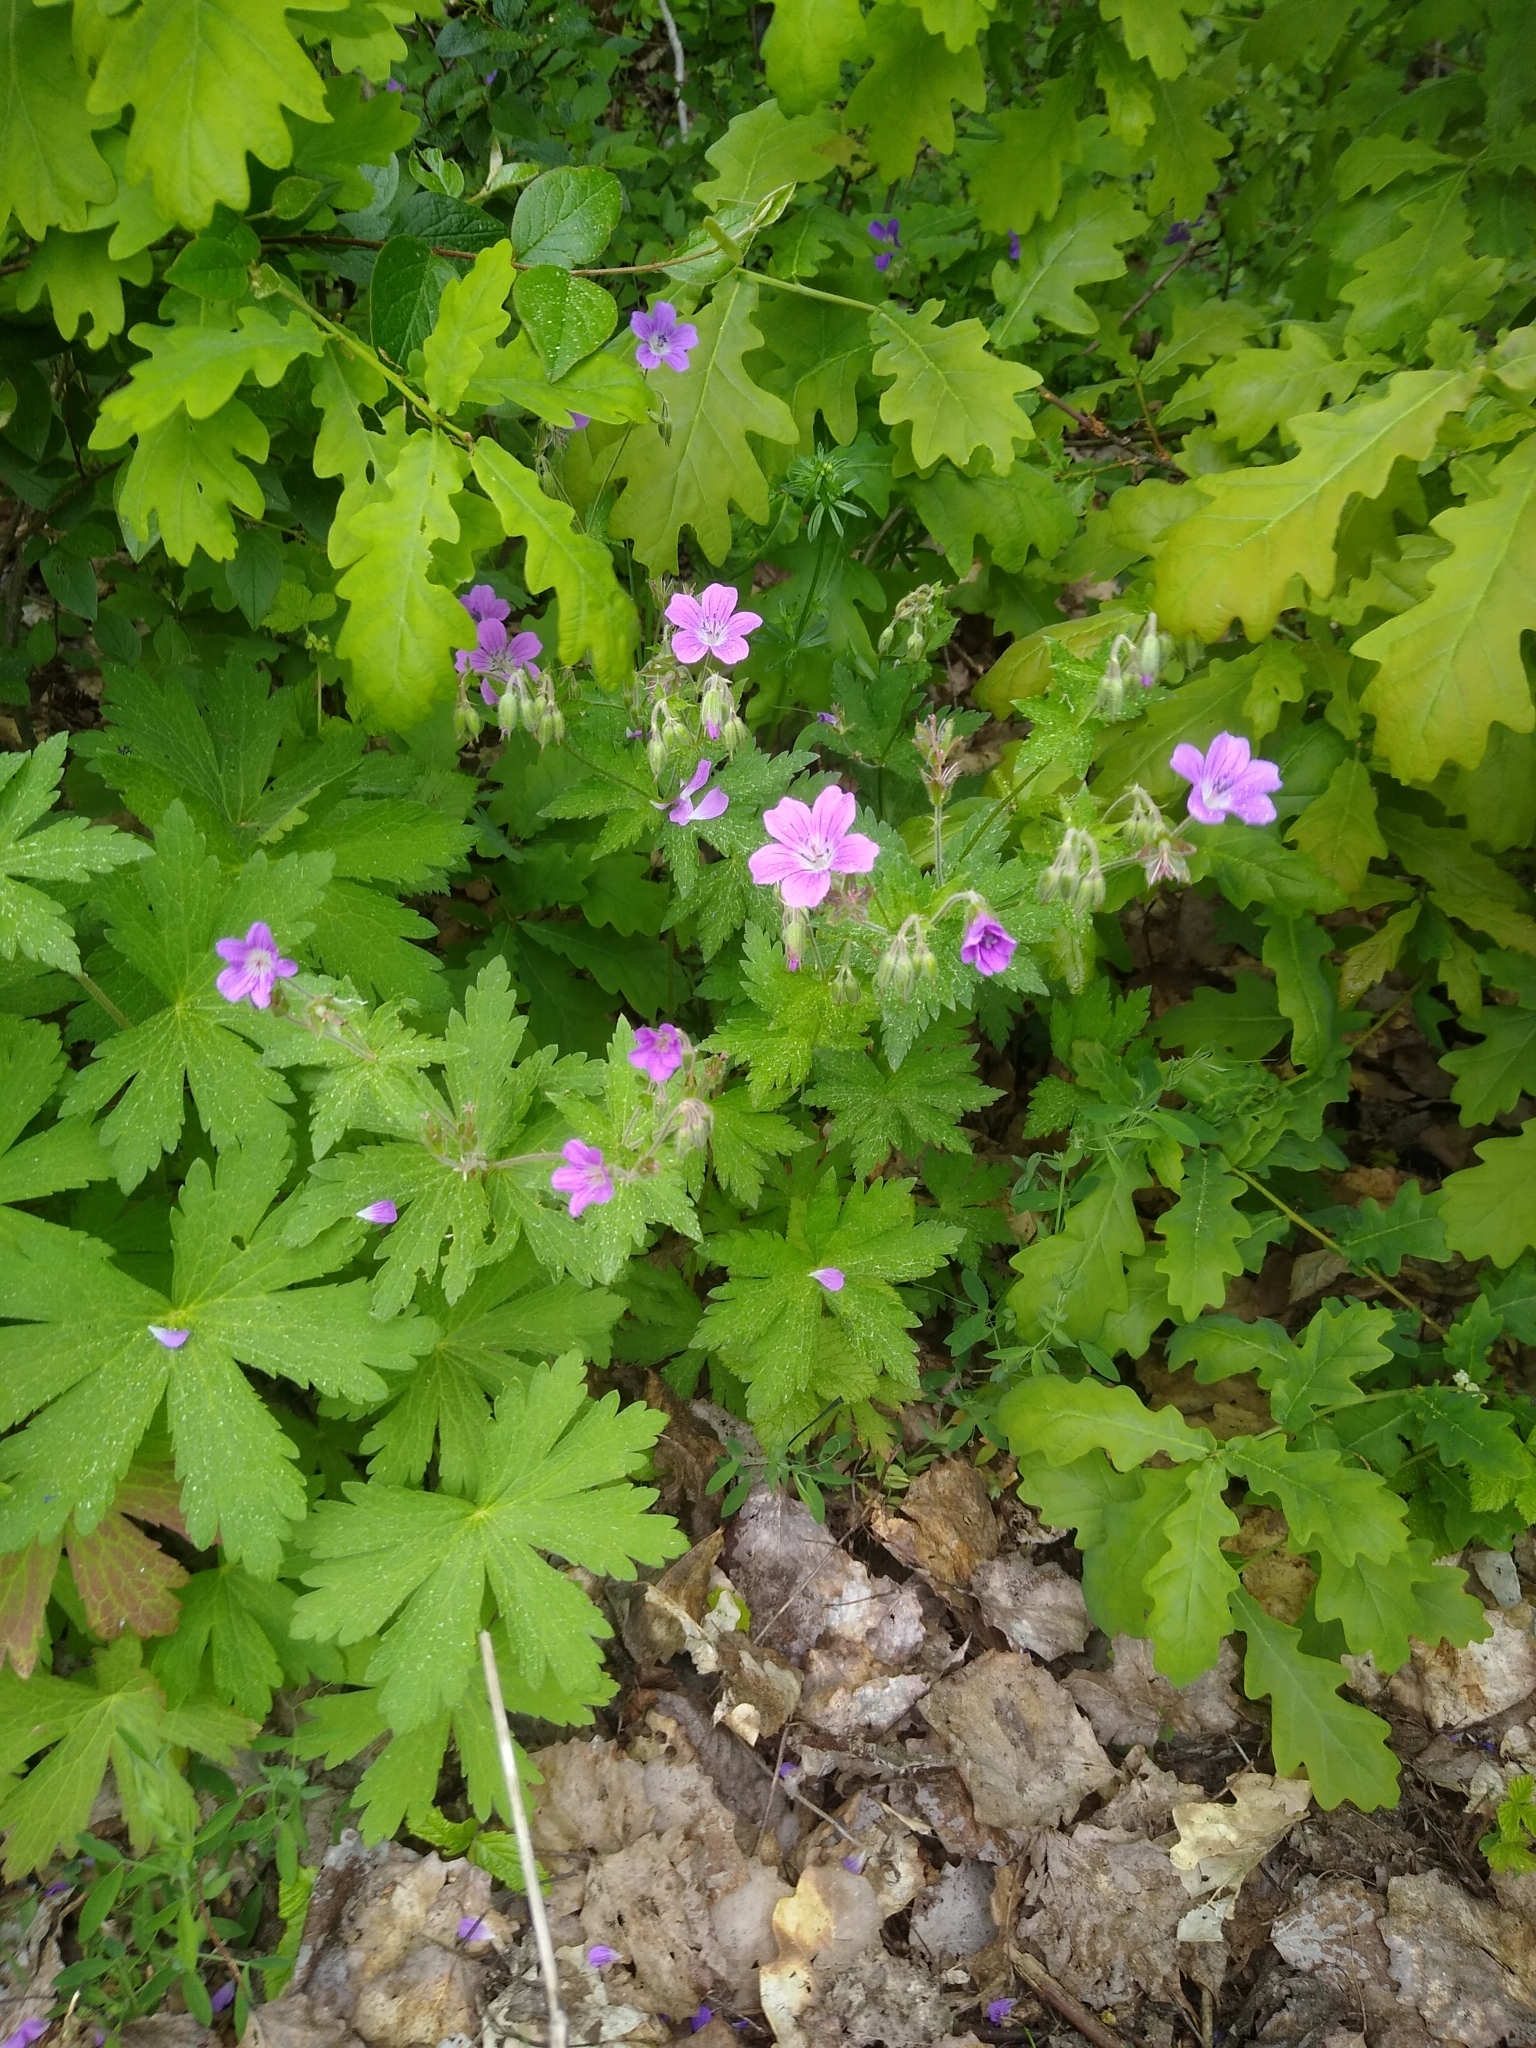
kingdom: Plantae
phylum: Tracheophyta
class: Magnoliopsida
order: Geraniales
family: Geraniaceae
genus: Geranium
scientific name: Geranium sylvaticum
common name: Wood crane's-bill
